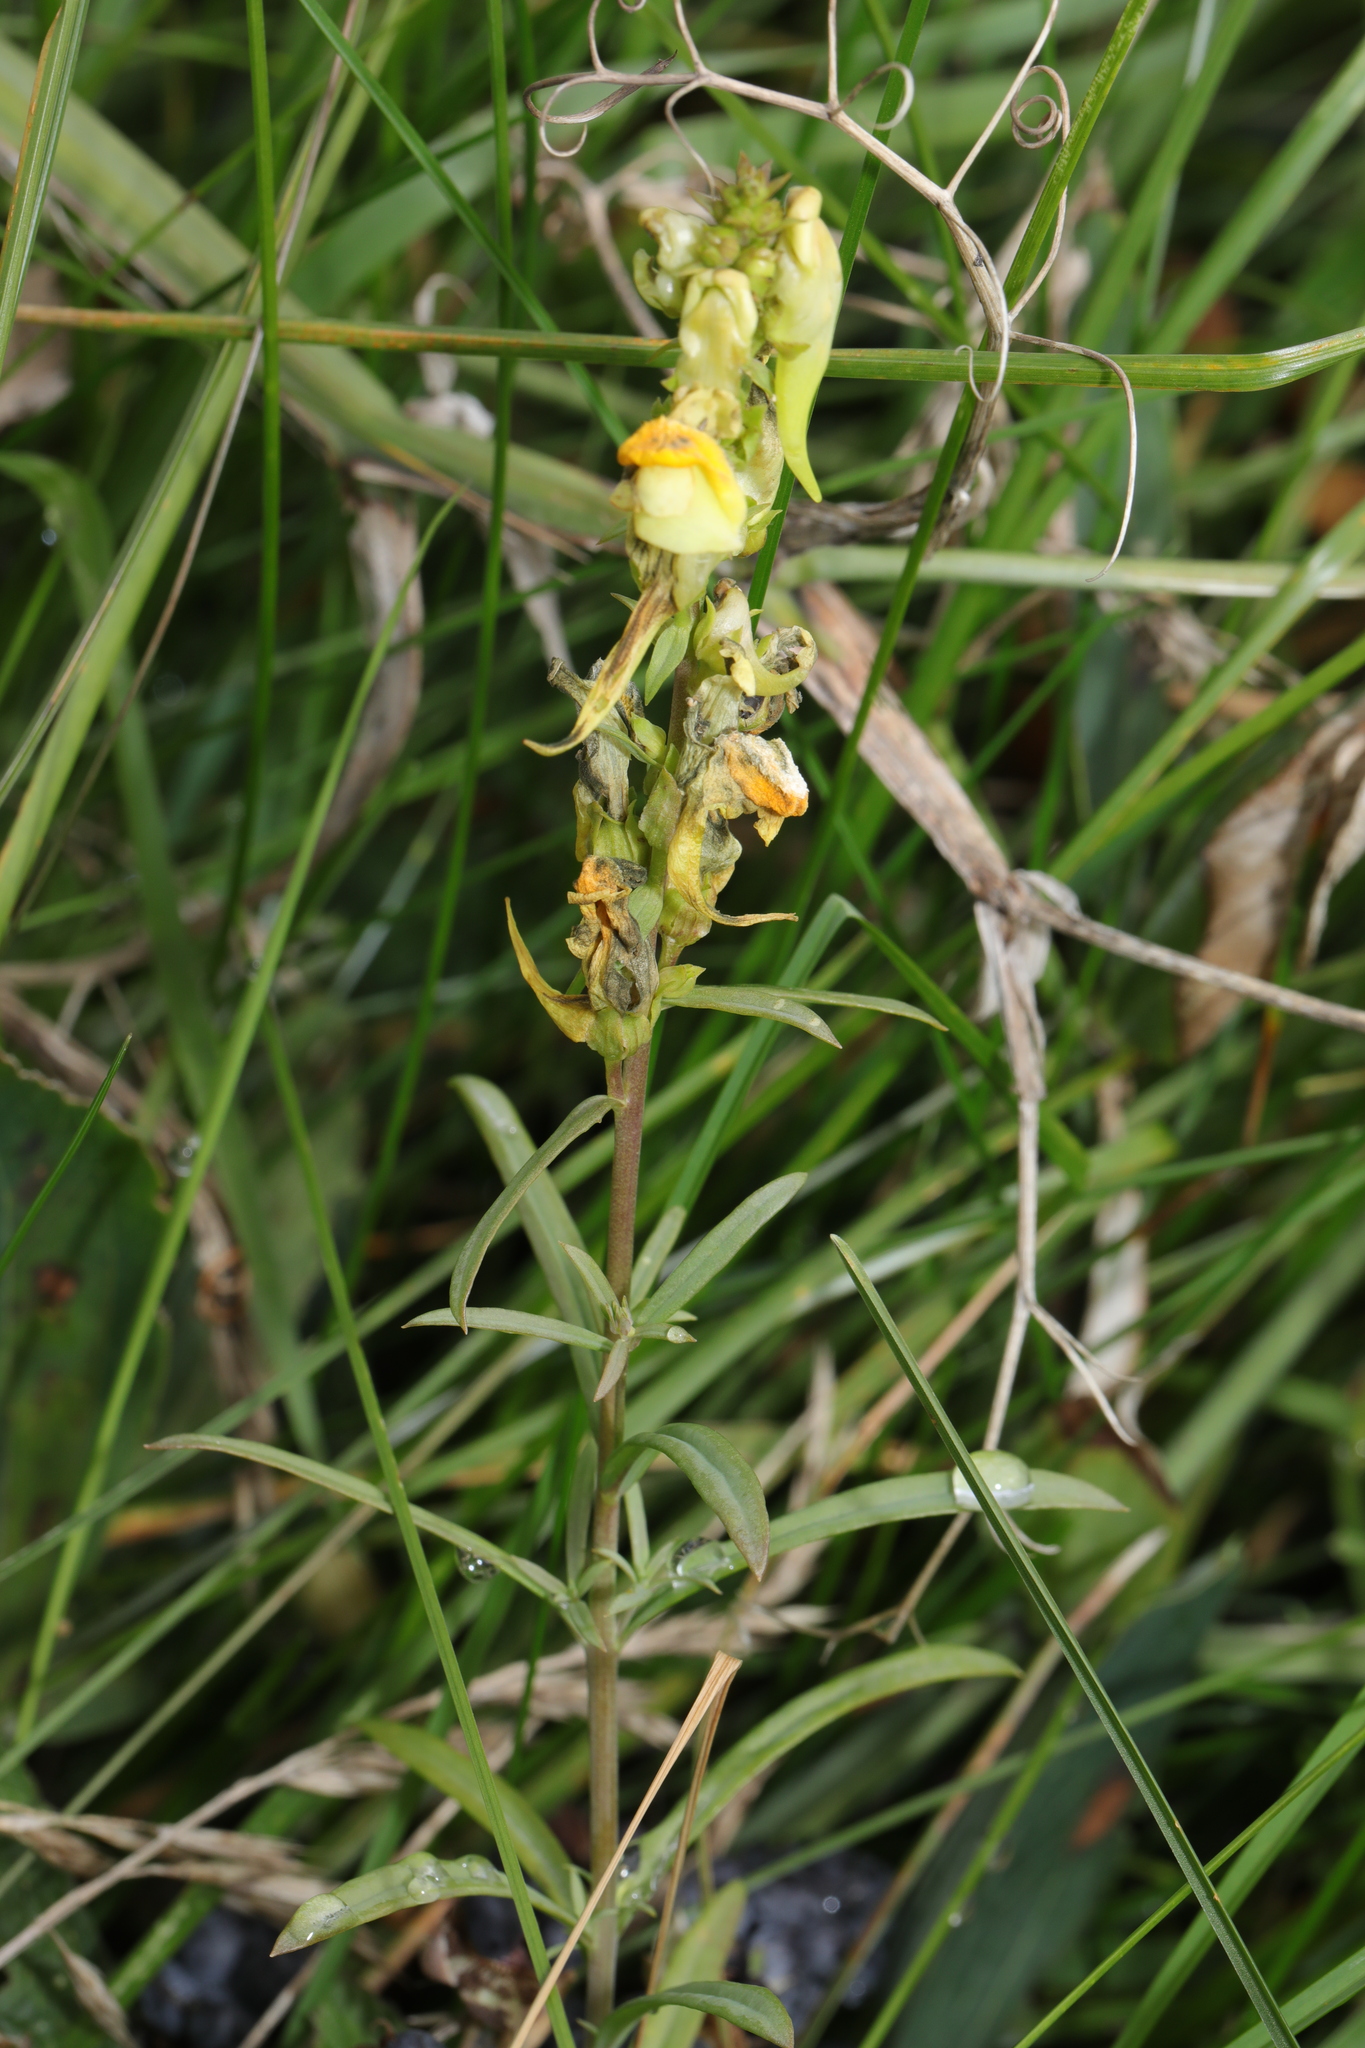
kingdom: Plantae
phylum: Tracheophyta
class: Magnoliopsida
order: Lamiales
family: Plantaginaceae
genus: Linaria
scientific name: Linaria vulgaris
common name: Butter and eggs
